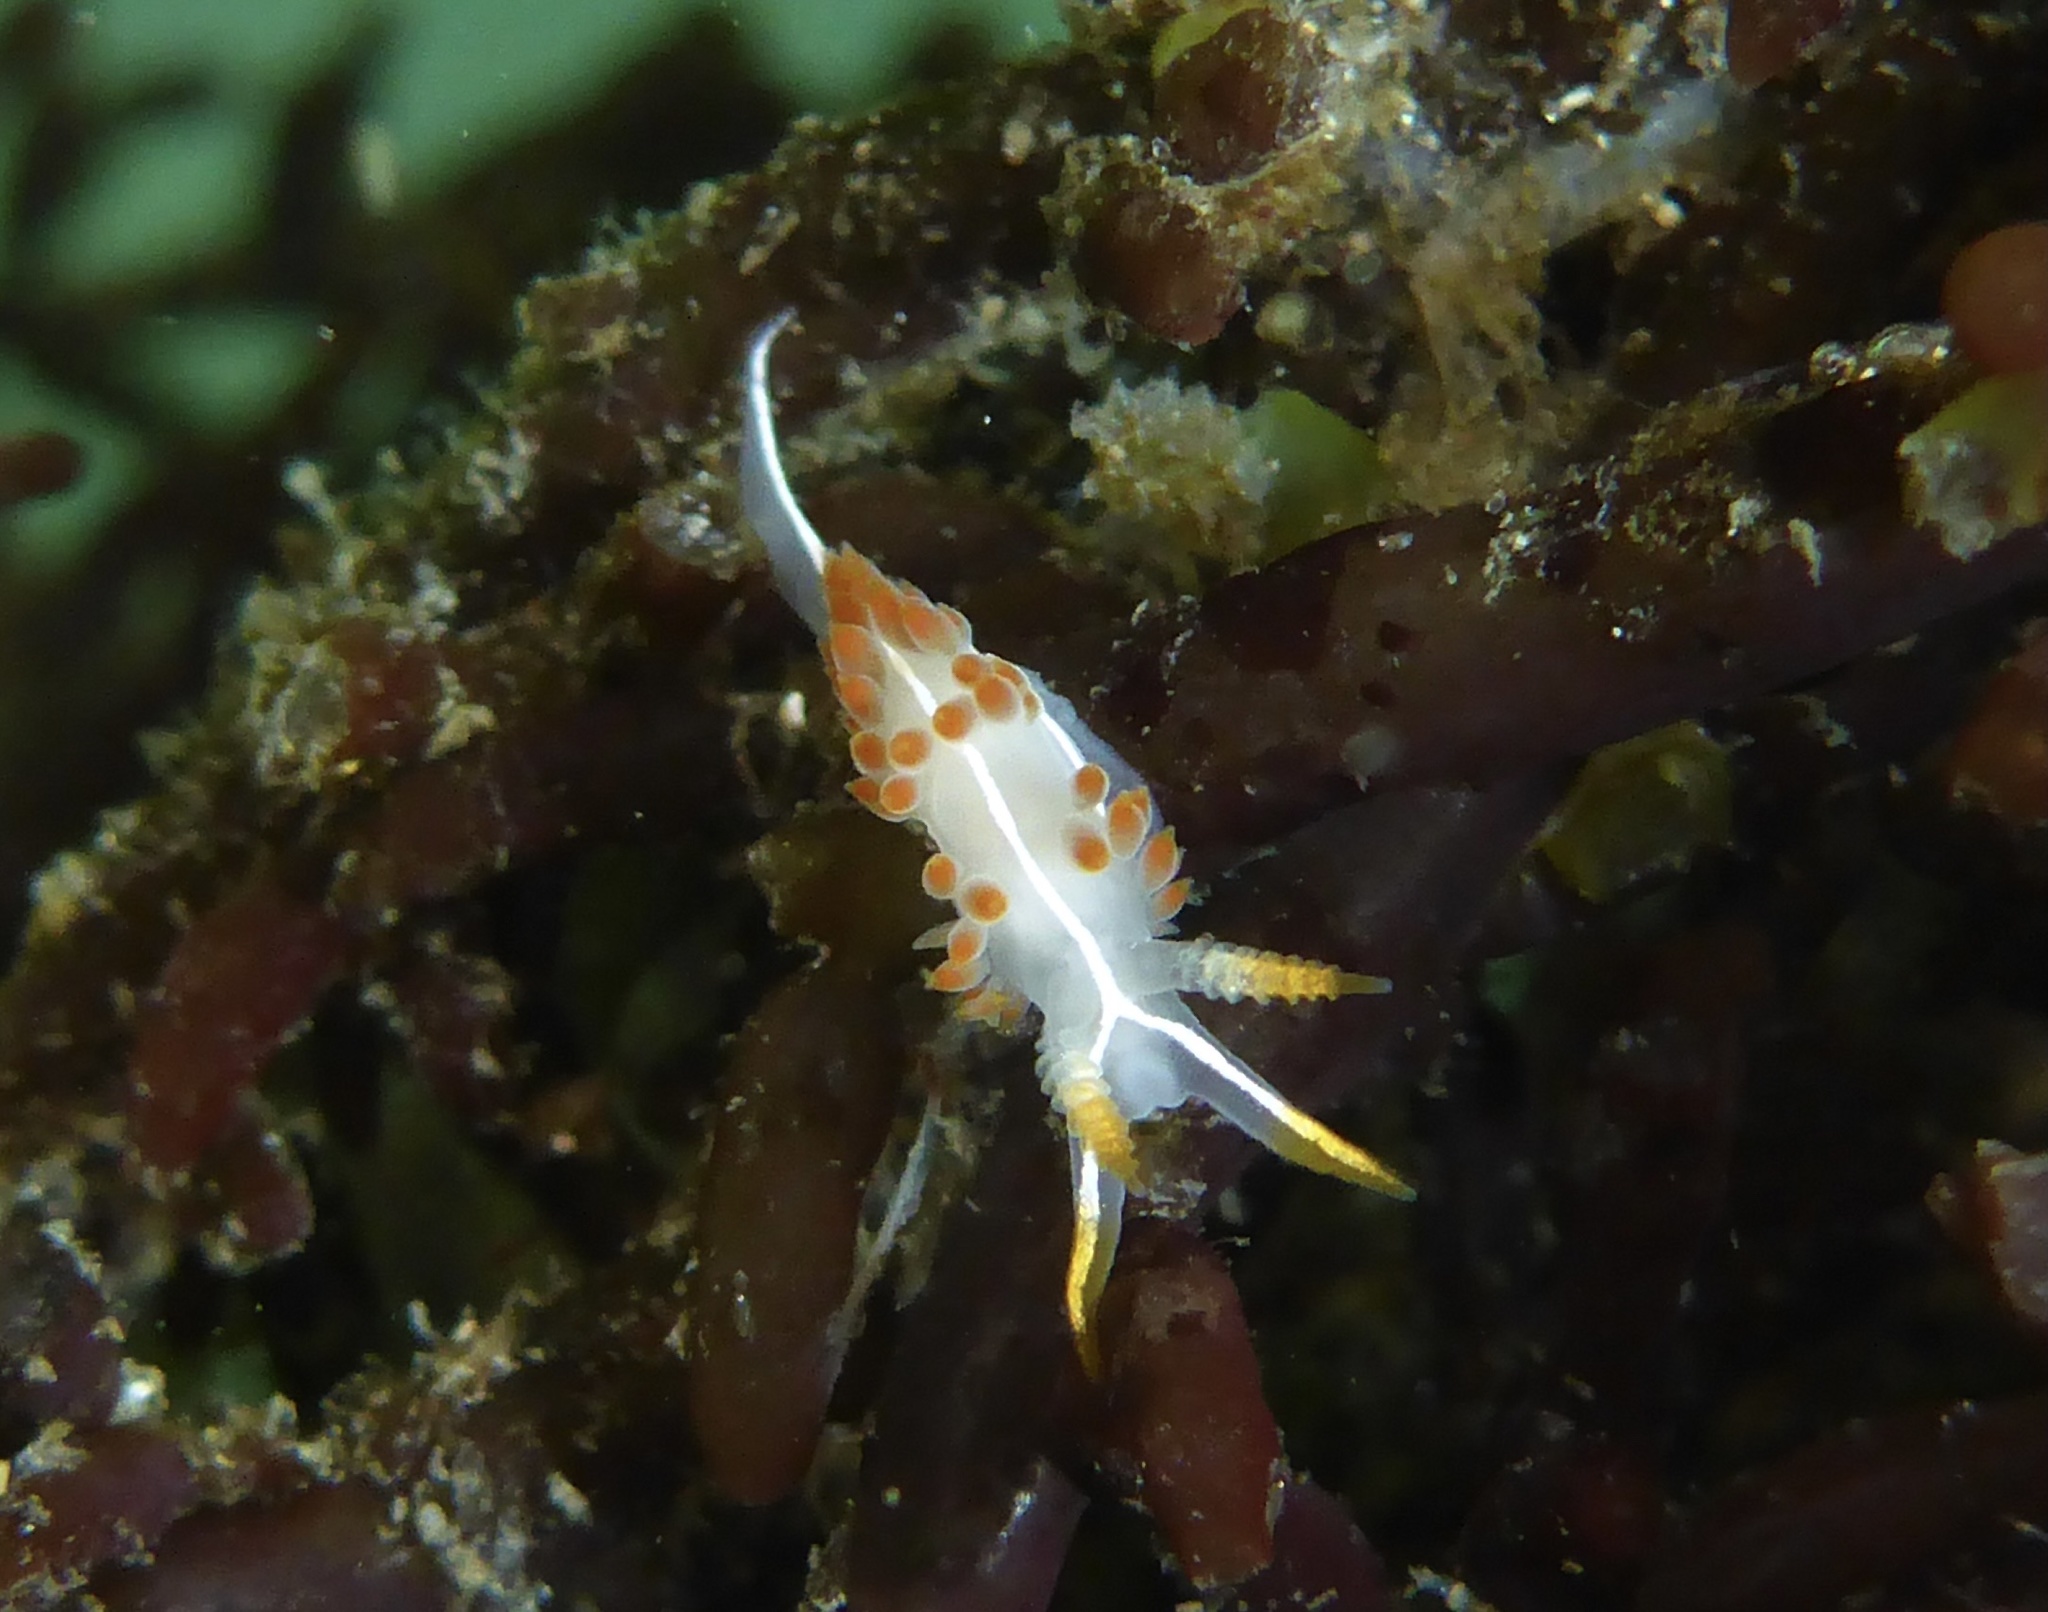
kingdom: Animalia
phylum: Mollusca
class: Gastropoda
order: Nudibranchia
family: Coryphellidae
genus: Coryphella
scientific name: Coryphella trilineata
